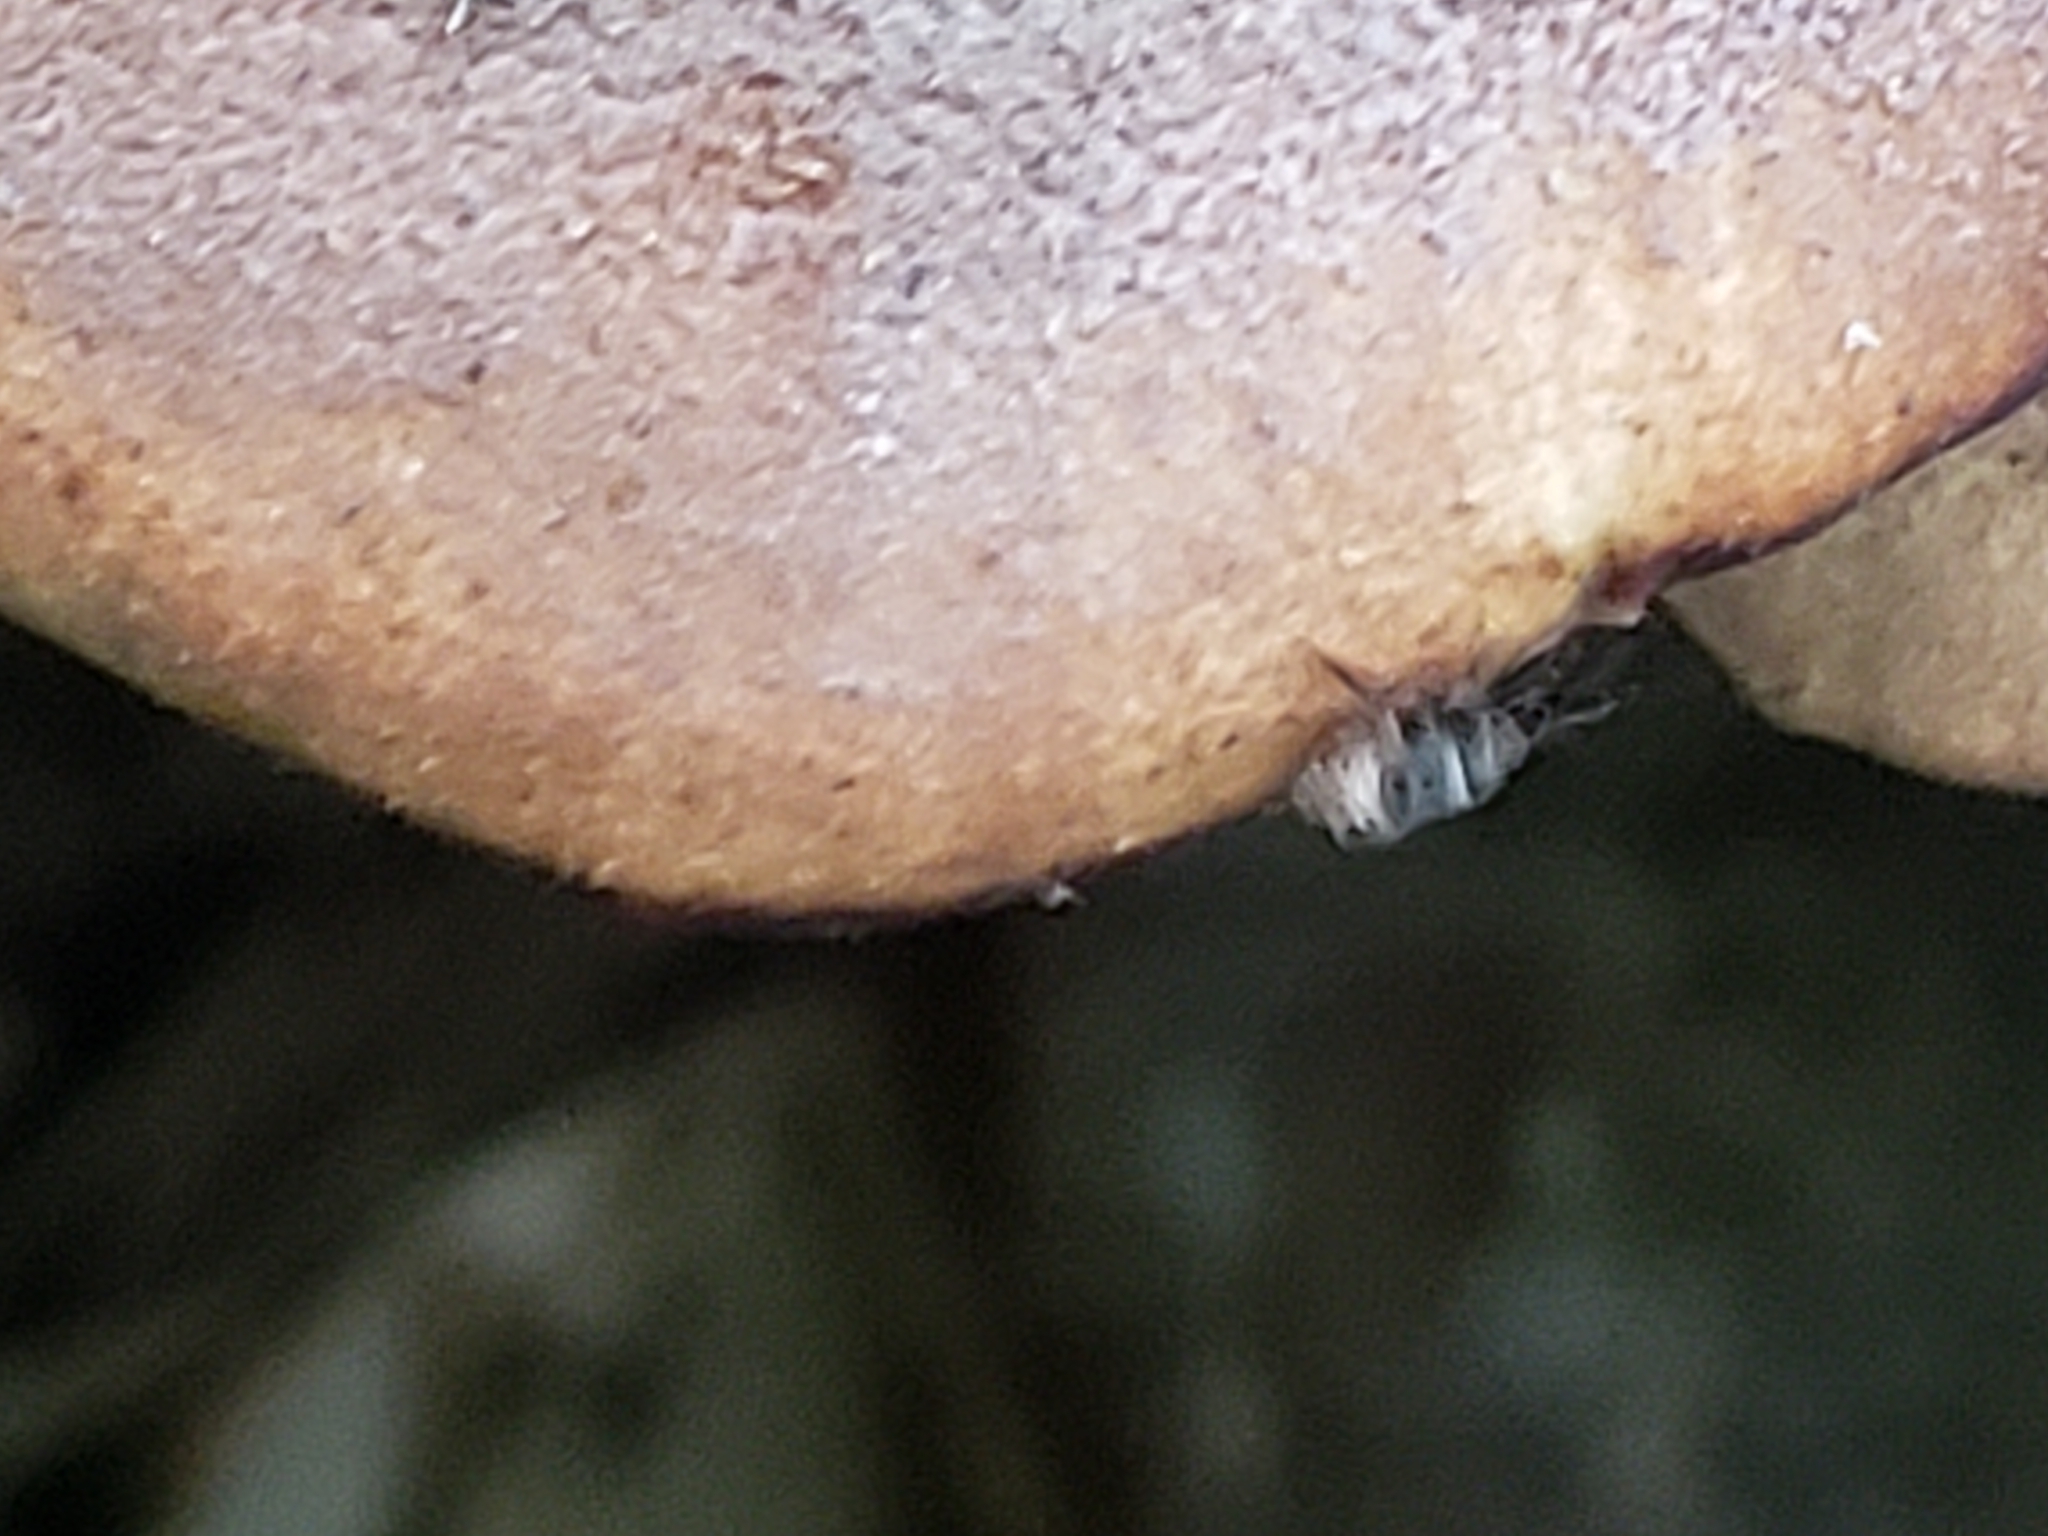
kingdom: Fungi
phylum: Basidiomycota
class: Agaricomycetes
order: Russulales
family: Auriscalpiaceae
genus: Lentinellus
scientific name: Lentinellus ursinus
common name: Bear lentinus
